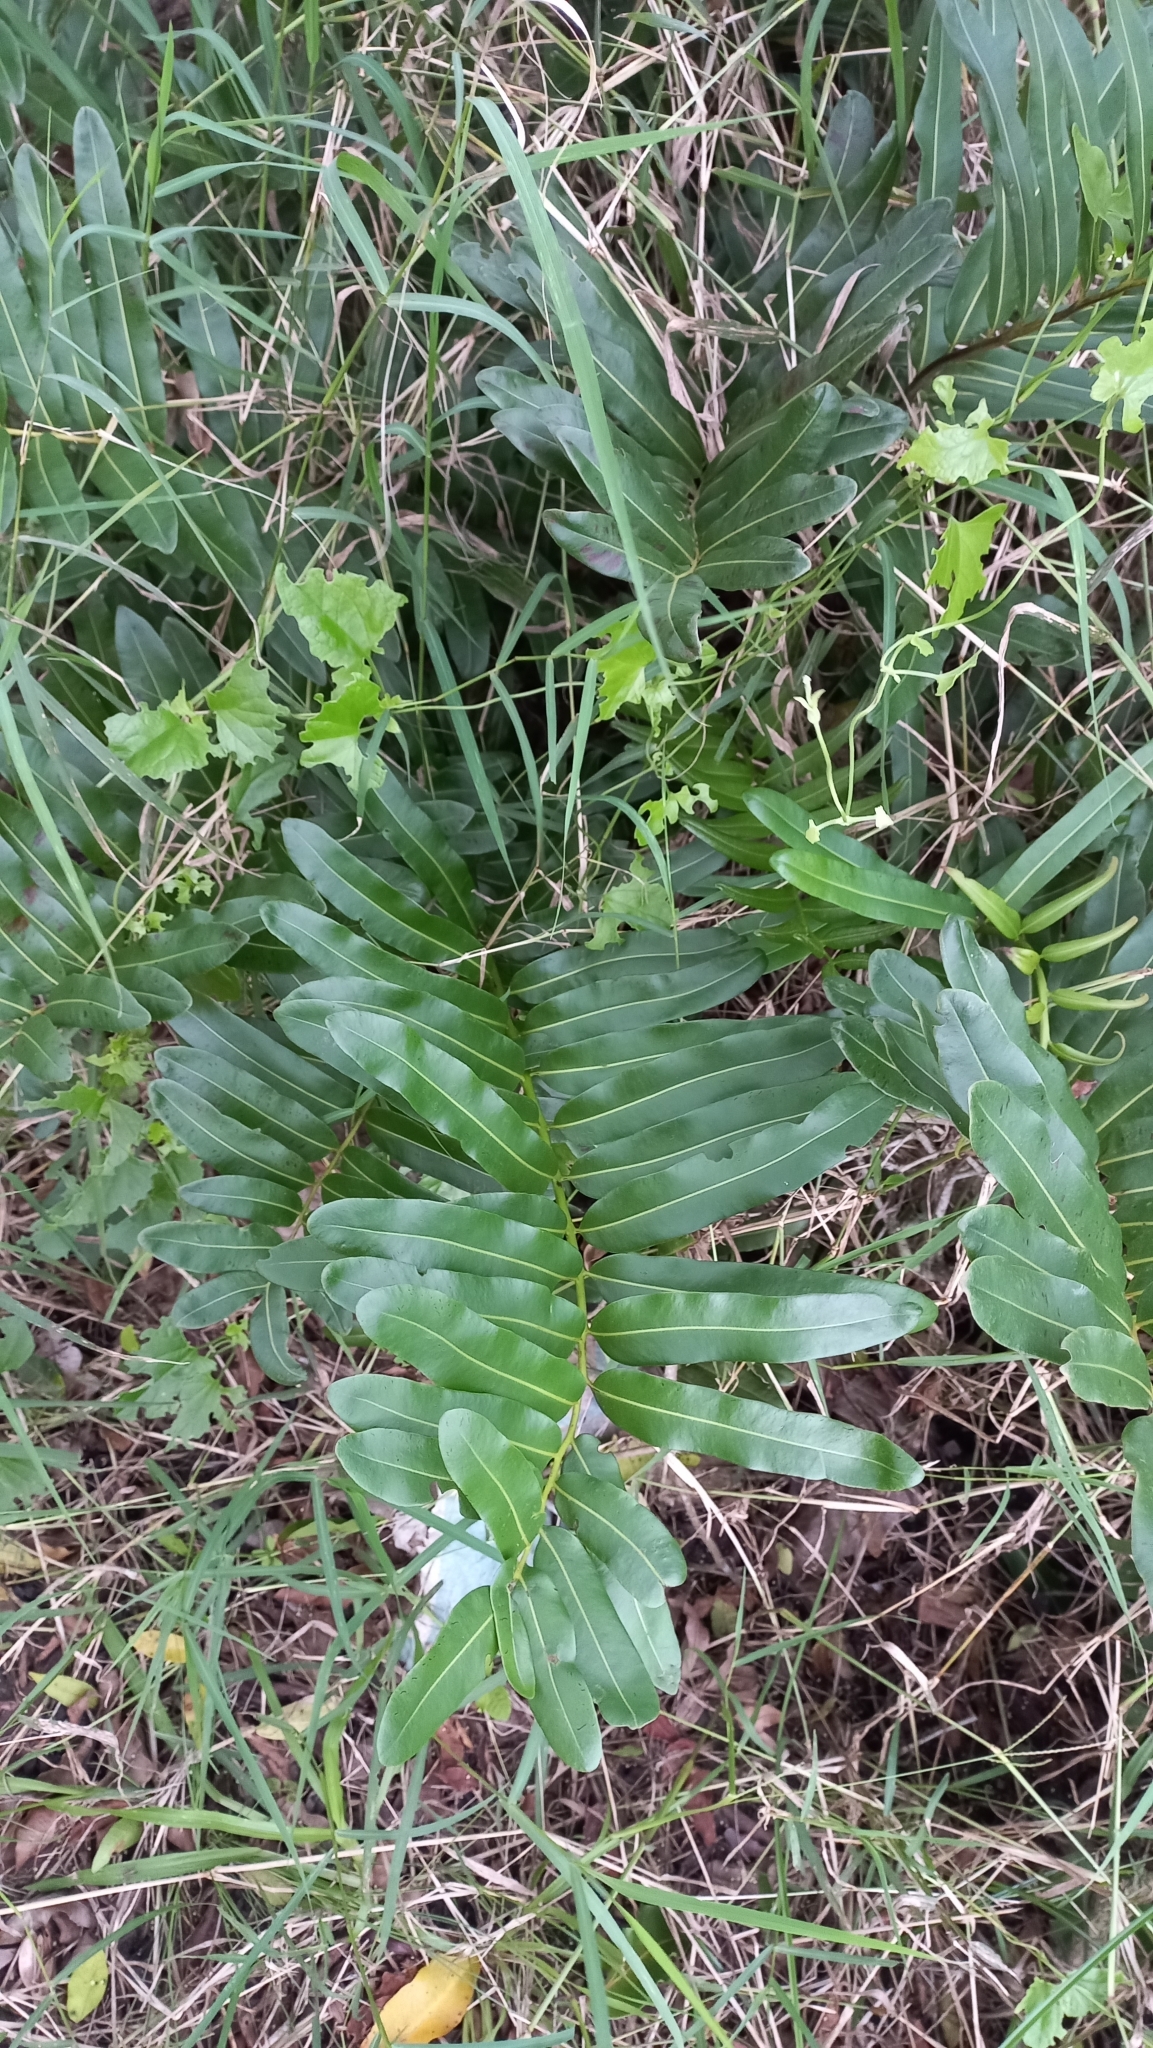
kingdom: Plantae
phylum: Tracheophyta
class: Polypodiopsida
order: Polypodiales
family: Pteridaceae
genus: Acrostichum
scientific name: Acrostichum danaeifolium
